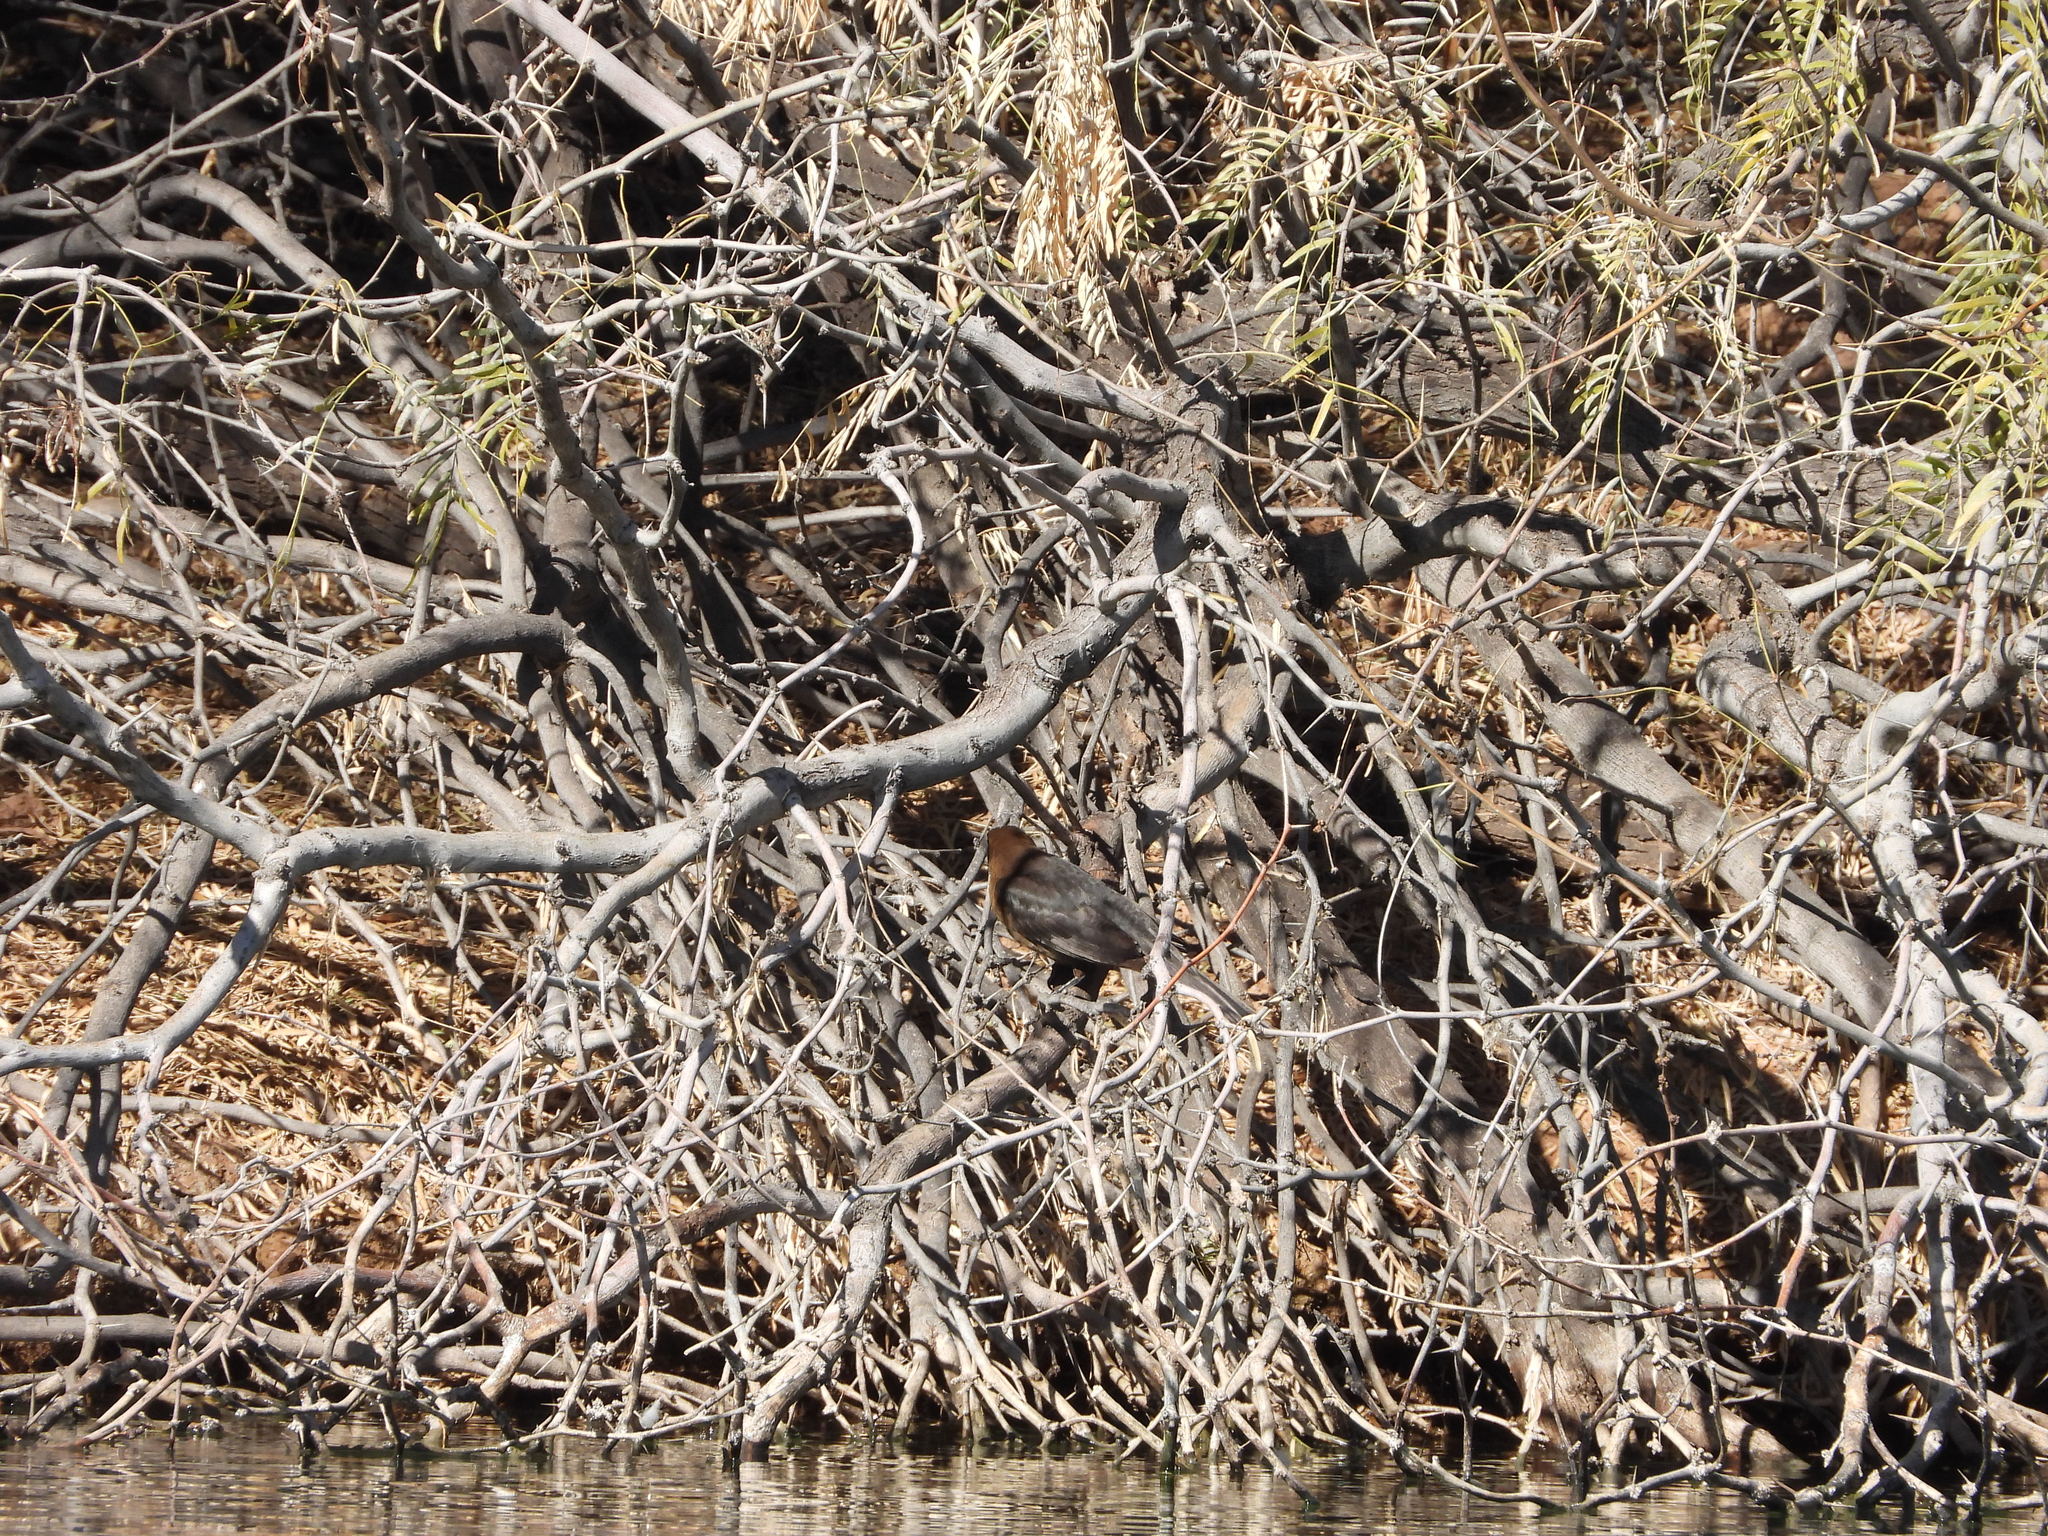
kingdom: Animalia
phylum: Chordata
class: Aves
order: Passeriformes
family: Icteridae
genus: Quiscalus
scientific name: Quiscalus mexicanus
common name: Great-tailed grackle
